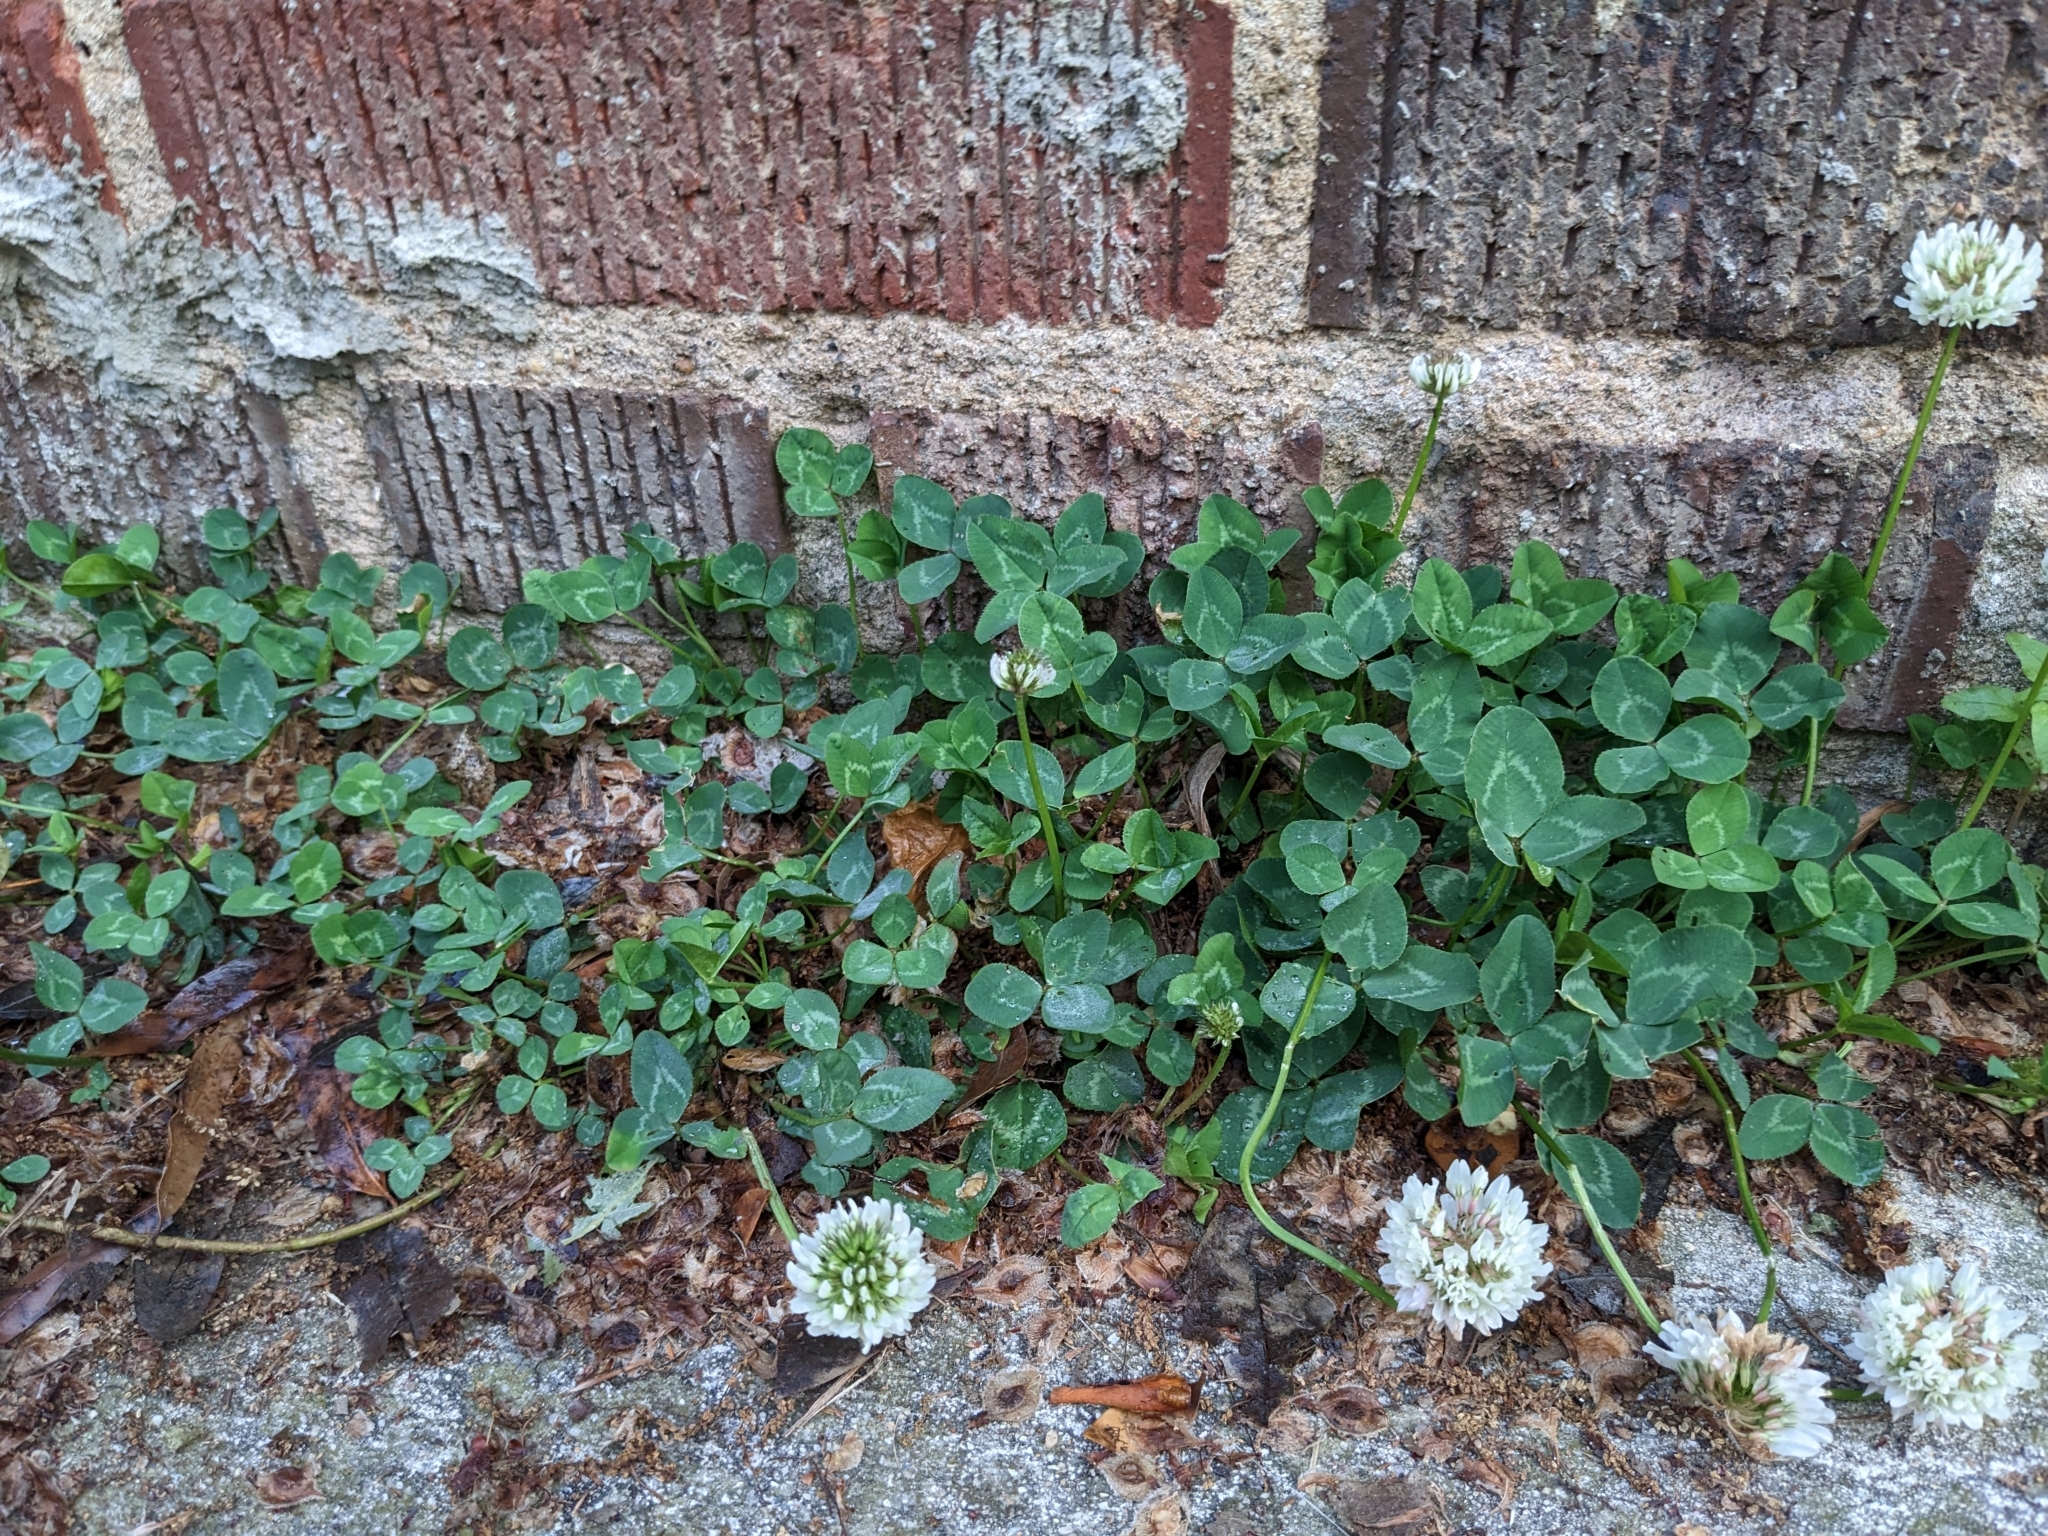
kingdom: Plantae
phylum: Tracheophyta
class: Magnoliopsida
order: Fabales
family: Fabaceae
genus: Trifolium
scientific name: Trifolium repens
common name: White clover
